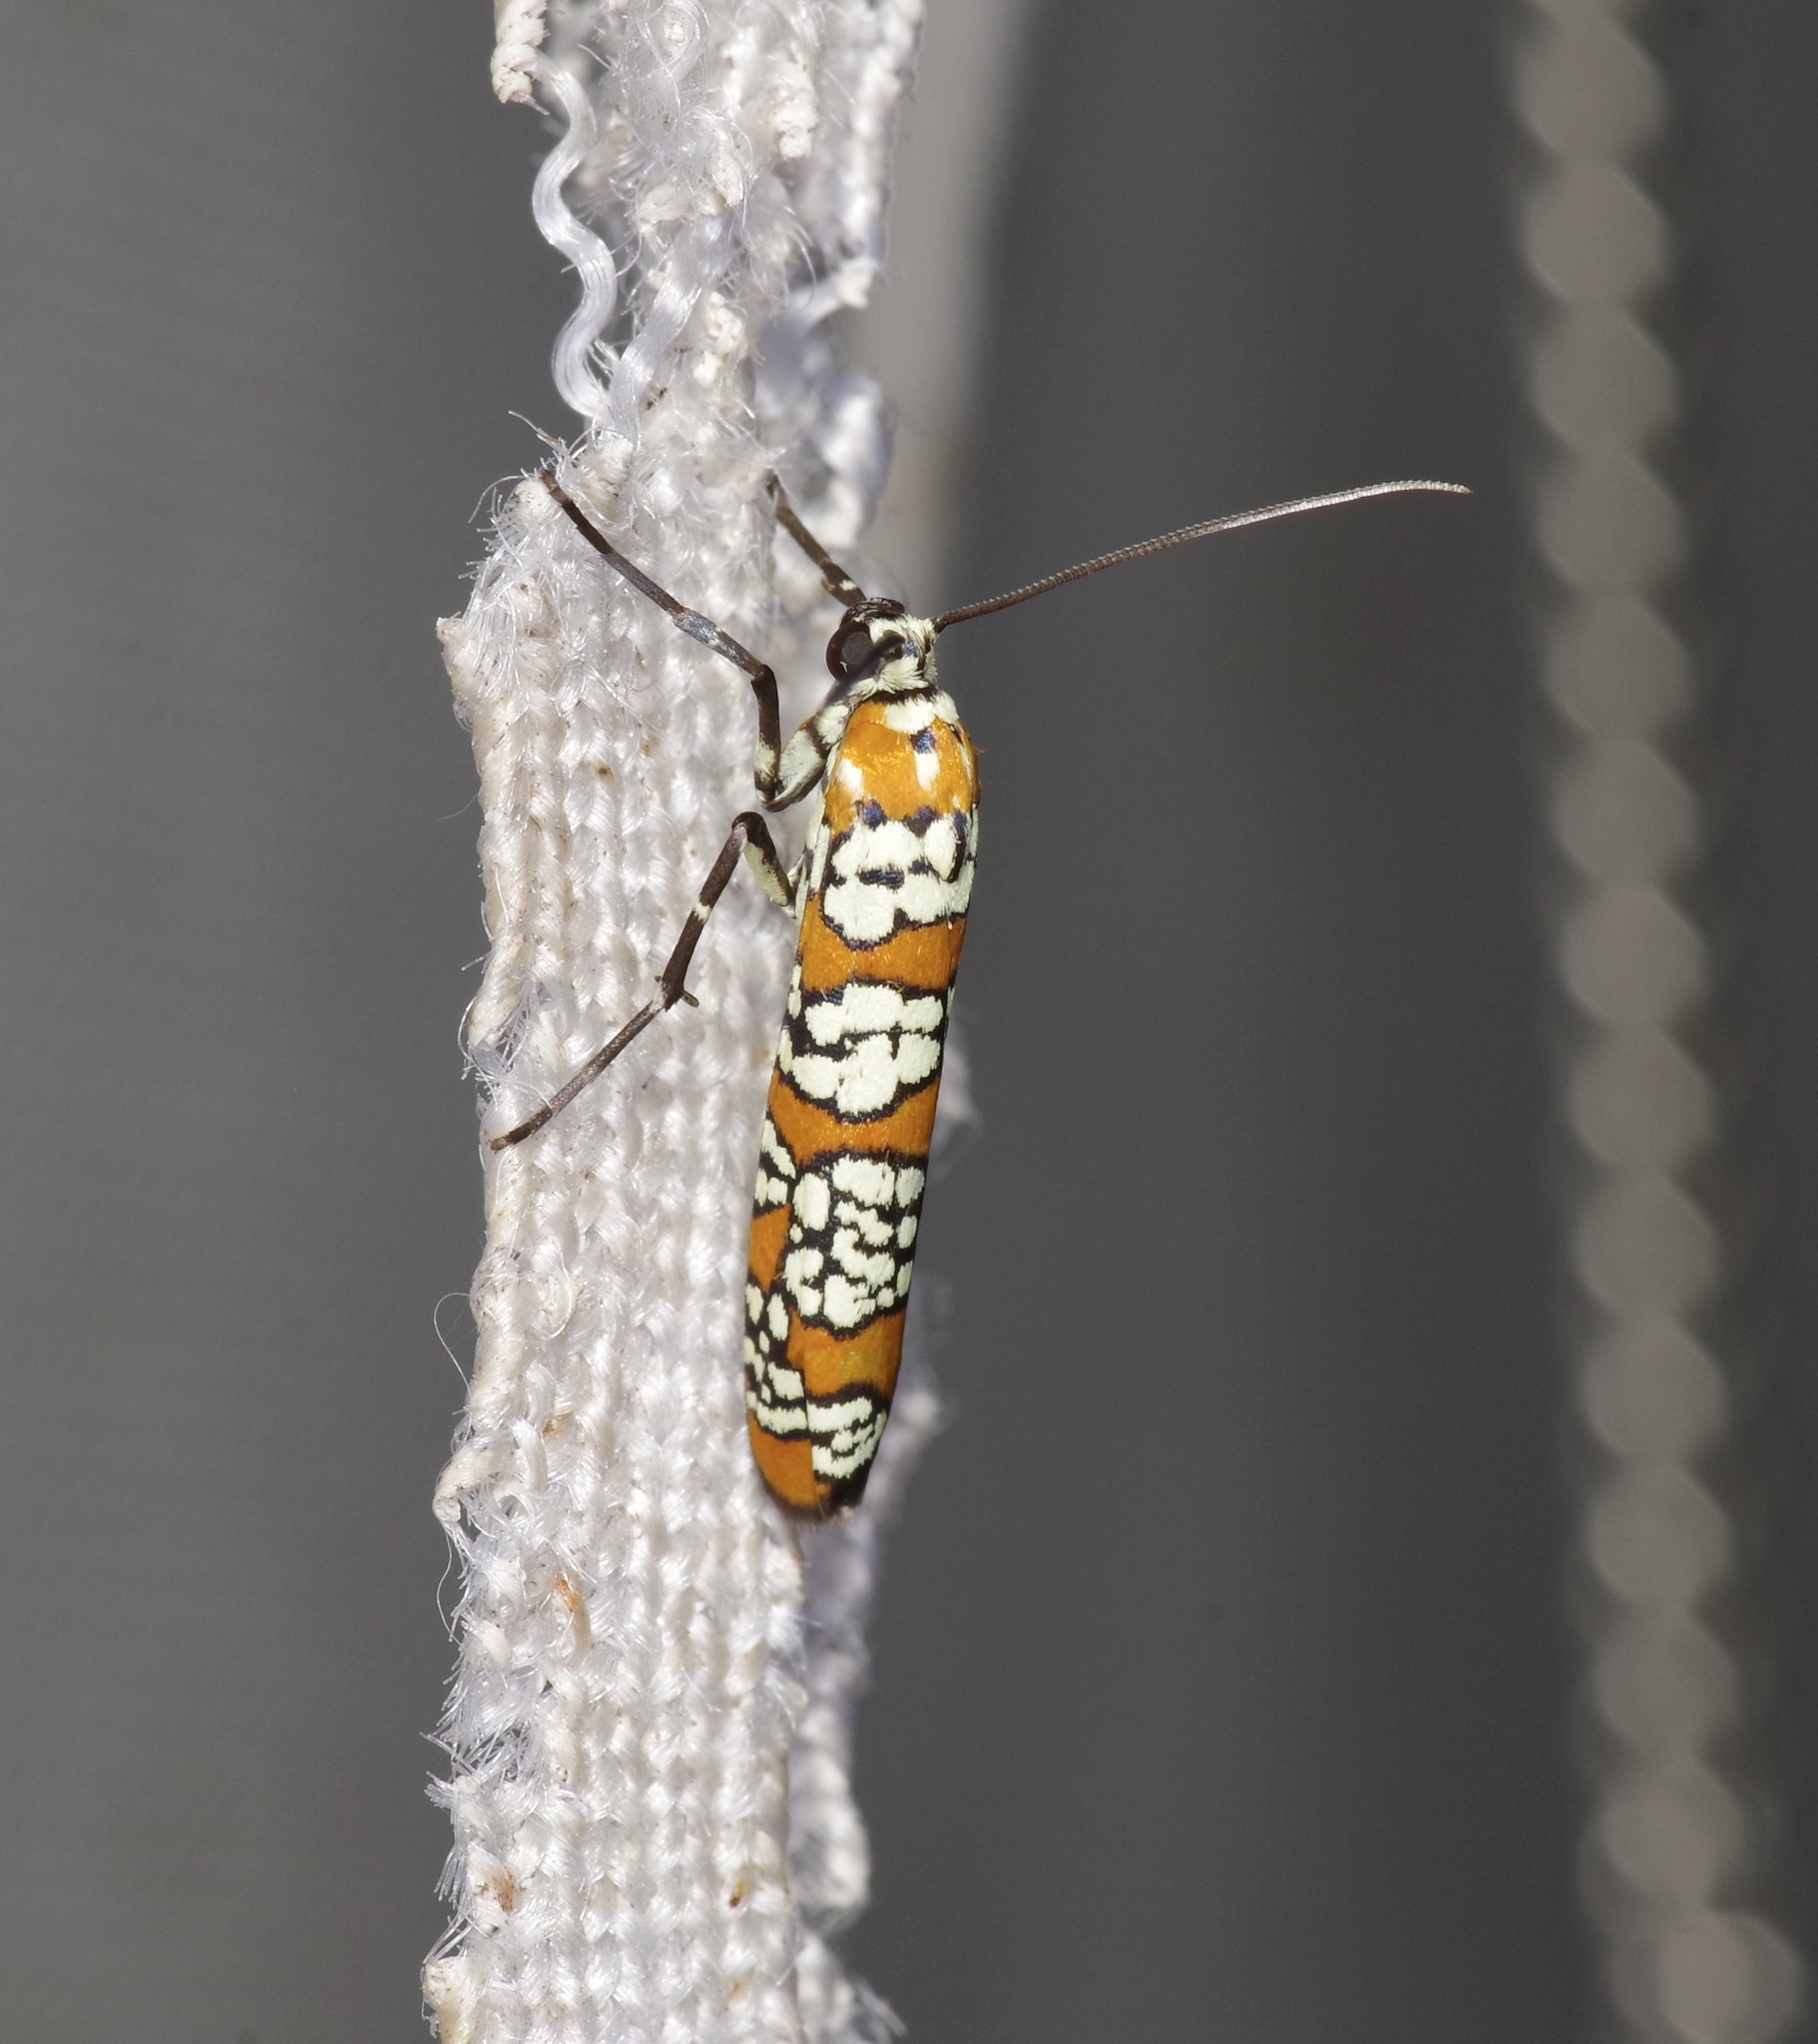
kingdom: Animalia
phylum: Arthropoda
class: Insecta
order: Lepidoptera
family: Attevidae
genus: Atteva
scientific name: Atteva punctella
